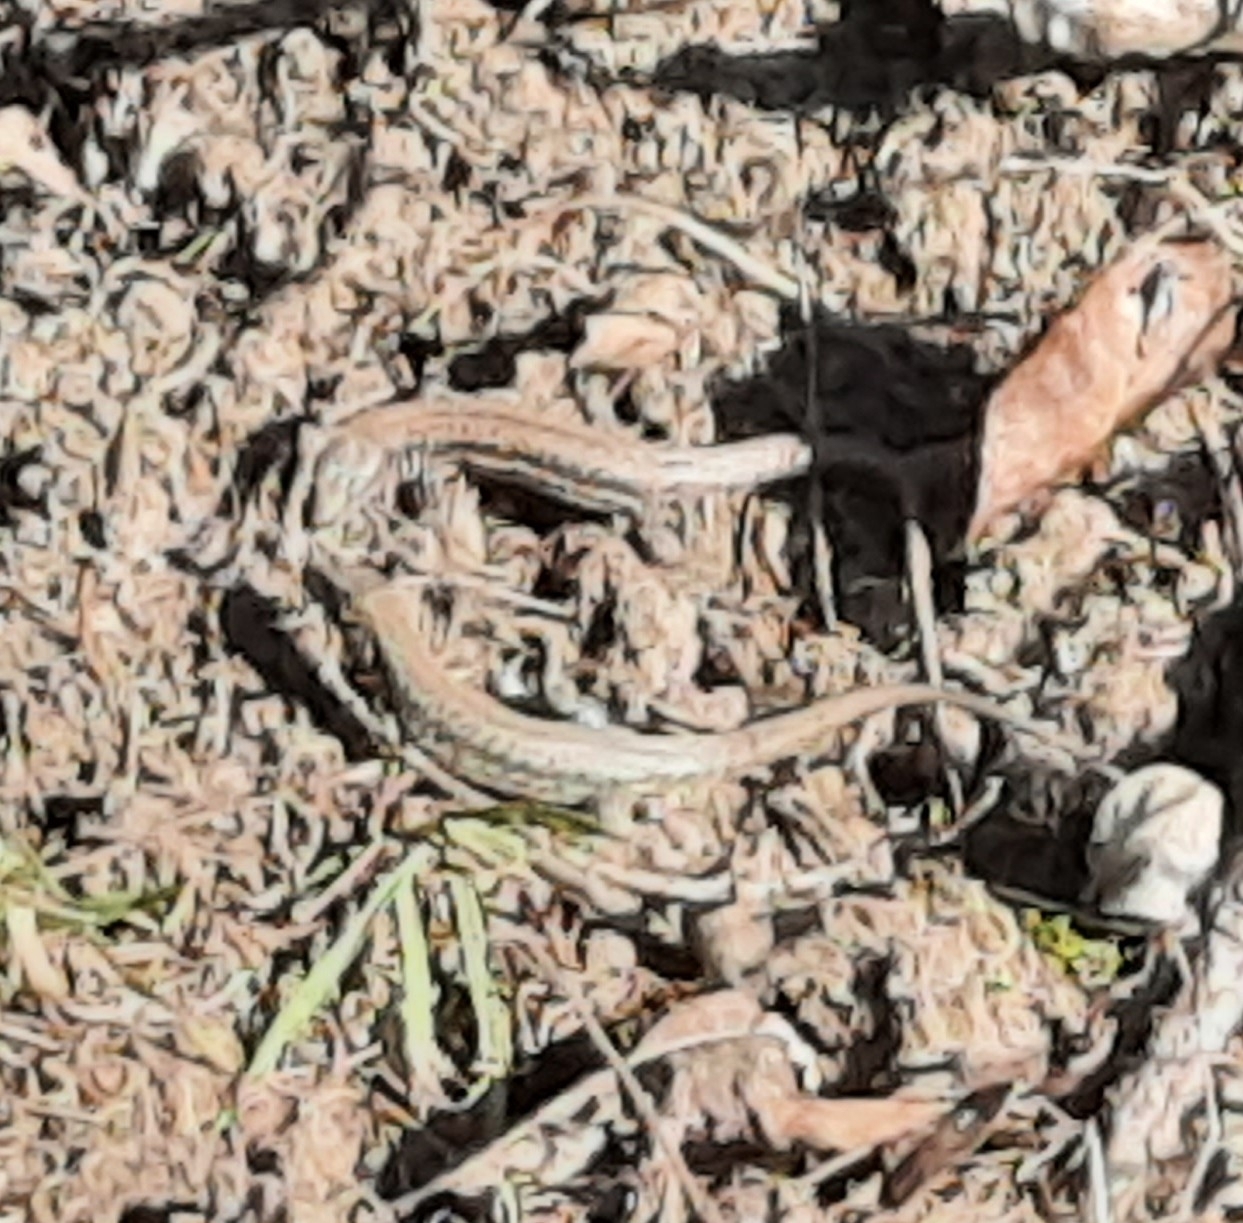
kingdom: Animalia
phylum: Chordata
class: Squamata
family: Lacertidae
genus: Podarcis
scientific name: Podarcis muralis
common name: Common wall lizard
